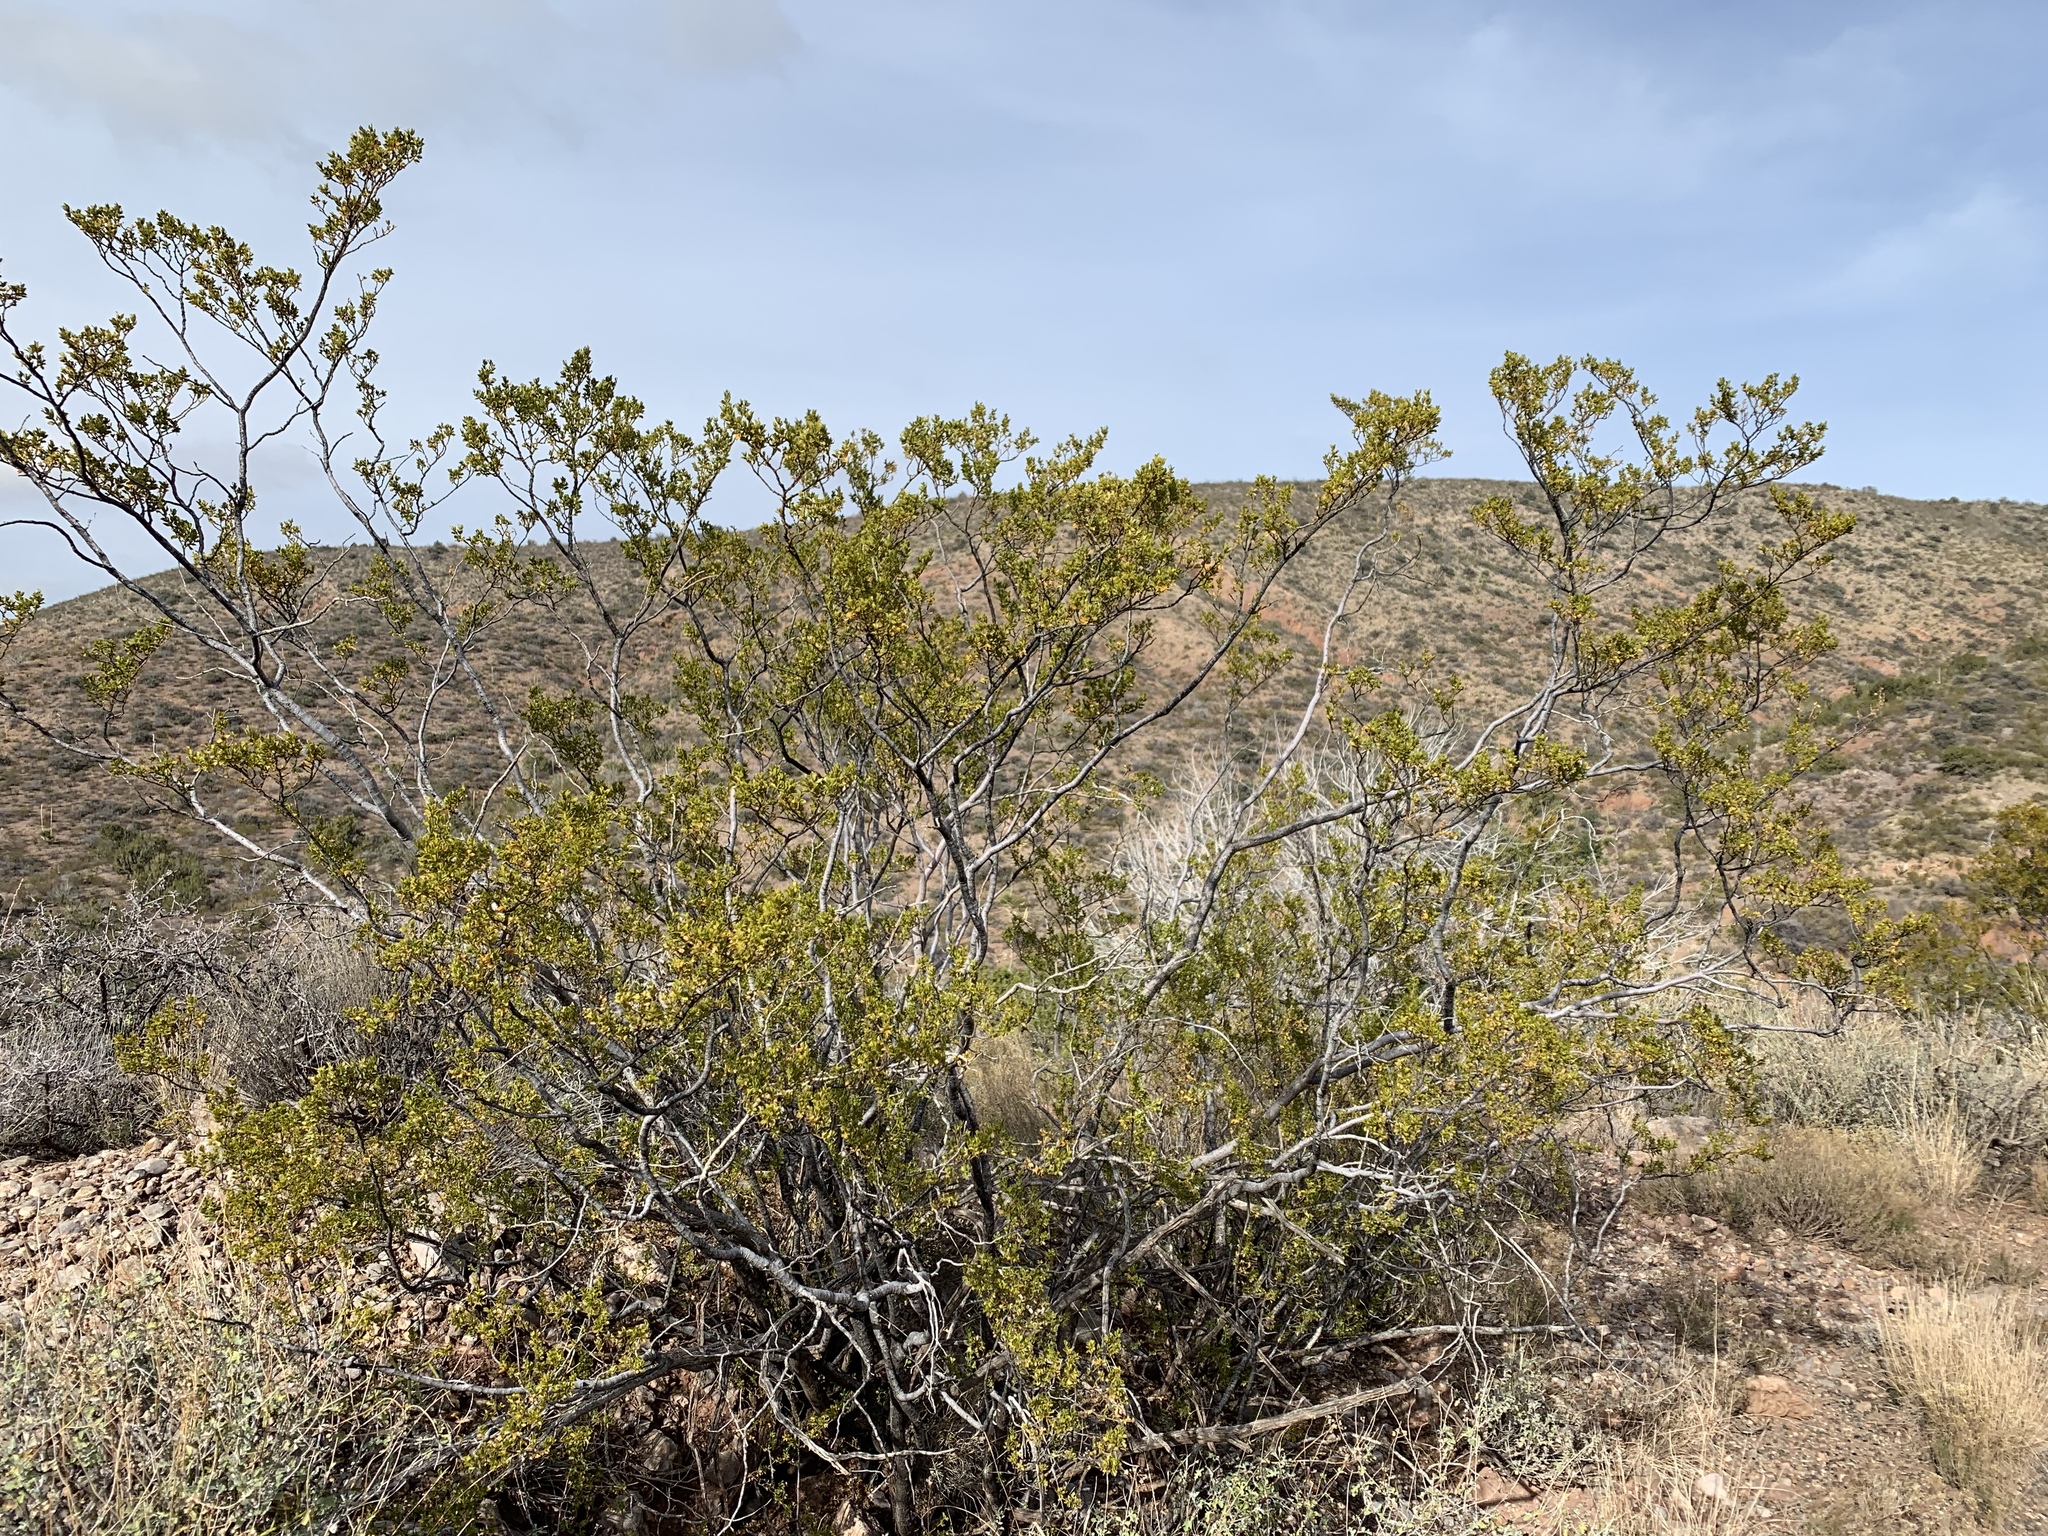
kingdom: Plantae
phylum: Tracheophyta
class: Magnoliopsida
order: Zygophyllales
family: Zygophyllaceae
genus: Larrea
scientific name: Larrea tridentata
